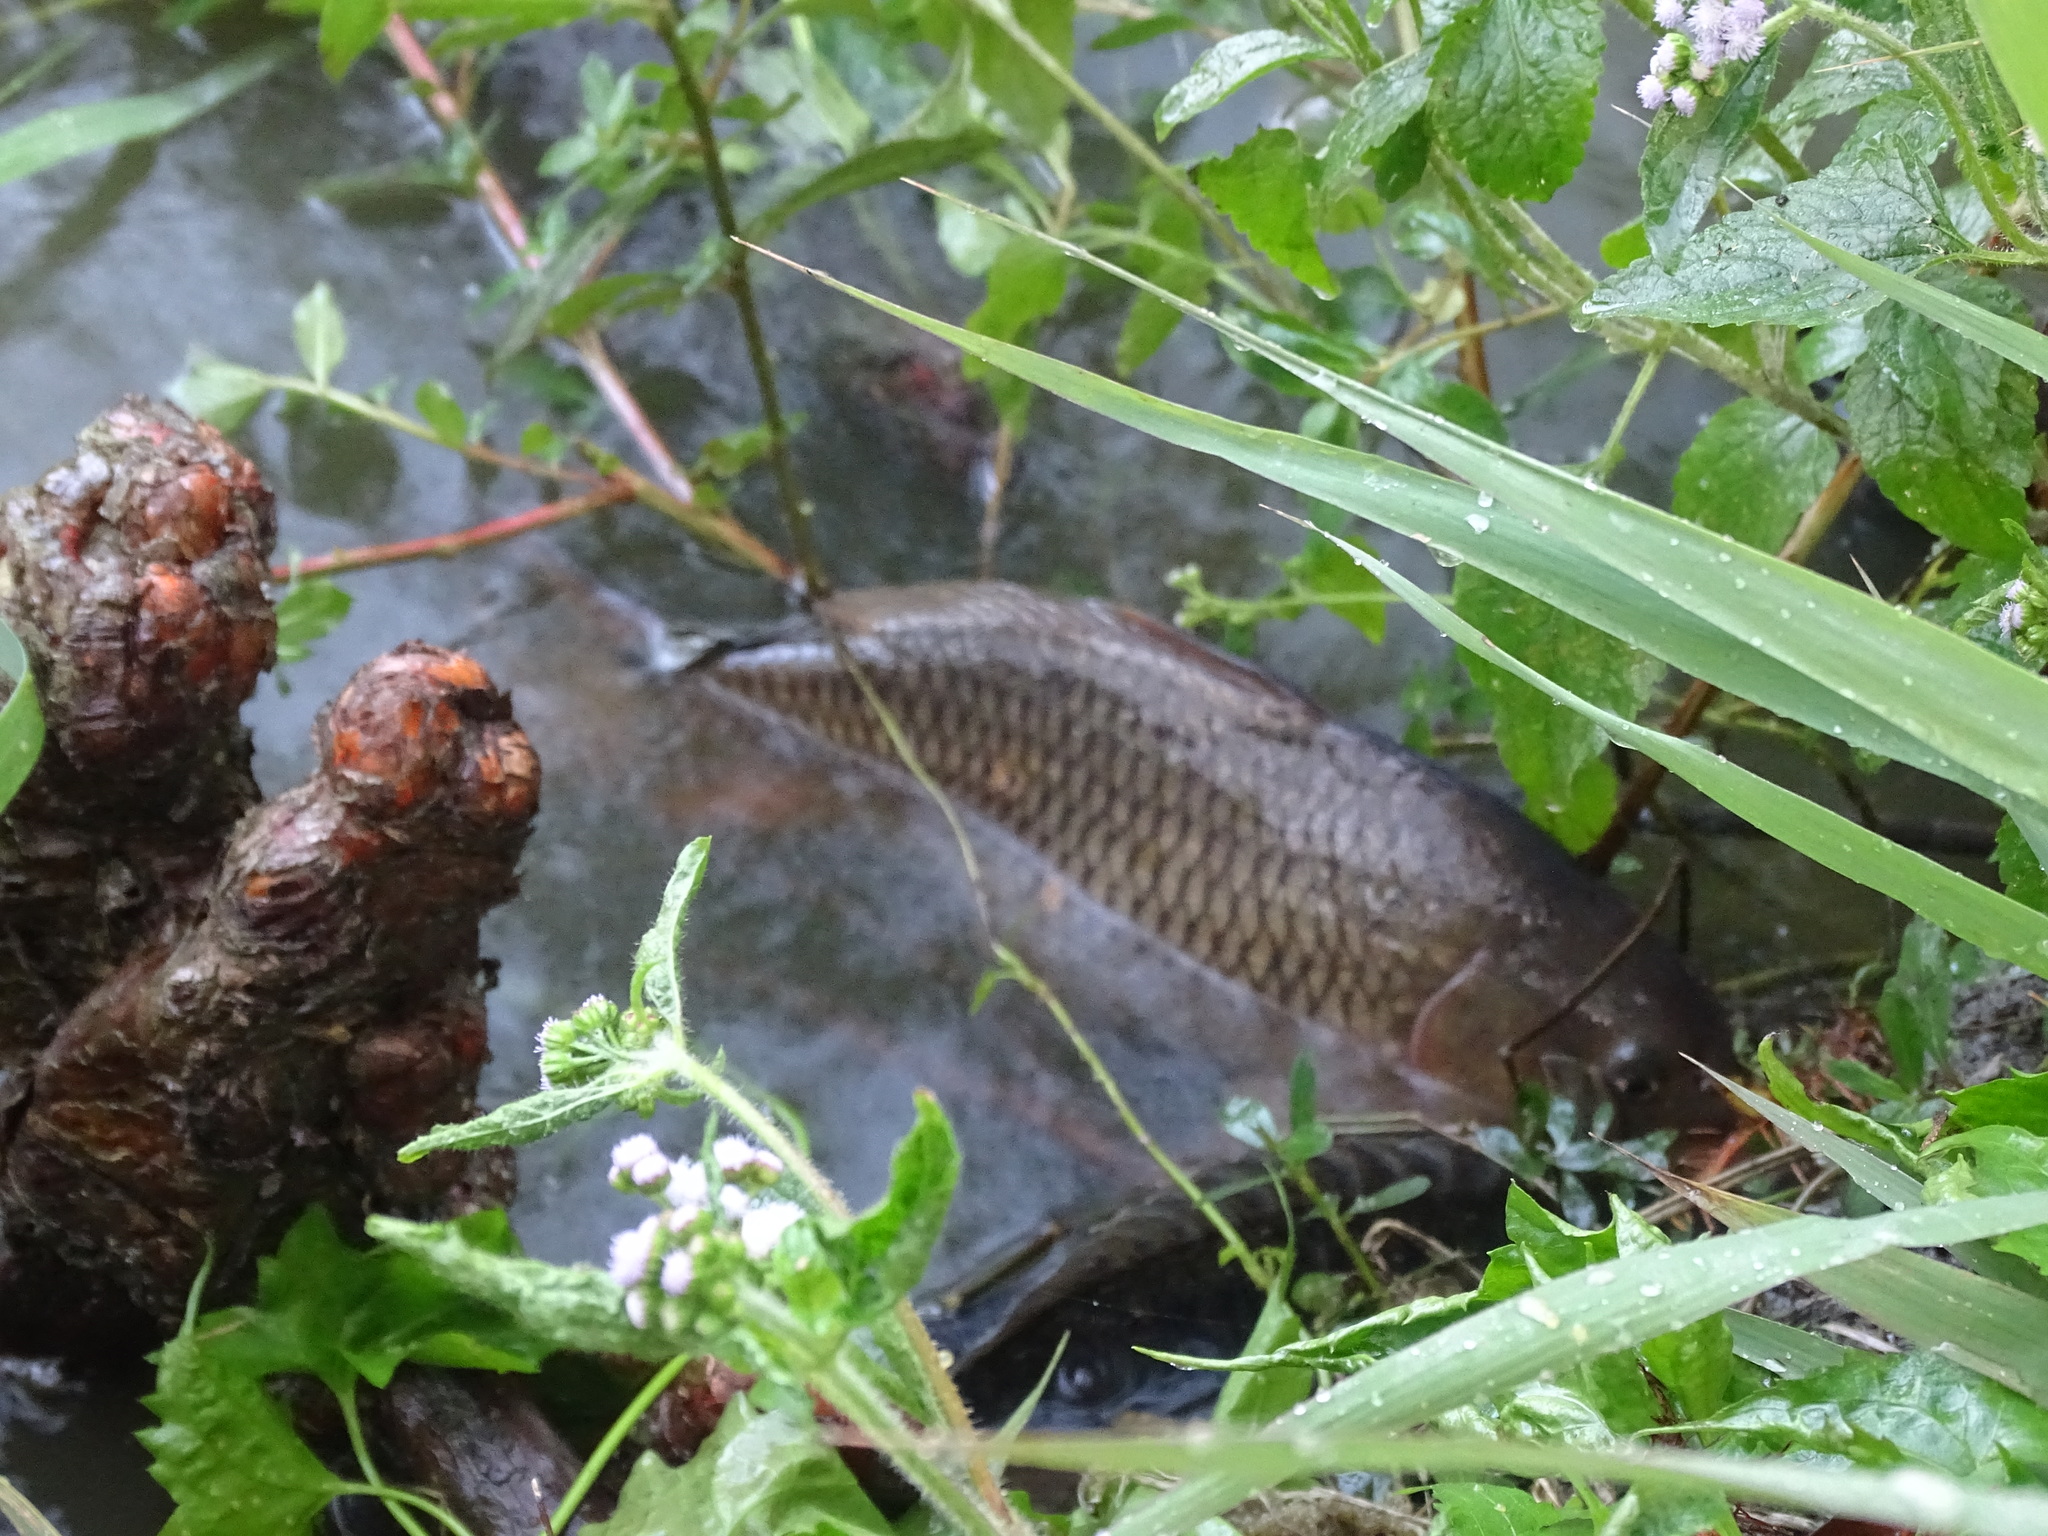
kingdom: Animalia
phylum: Chordata
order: Cypriniformes
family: Cyprinidae
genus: Cyprinus
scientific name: Cyprinus carpio
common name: Common carp
